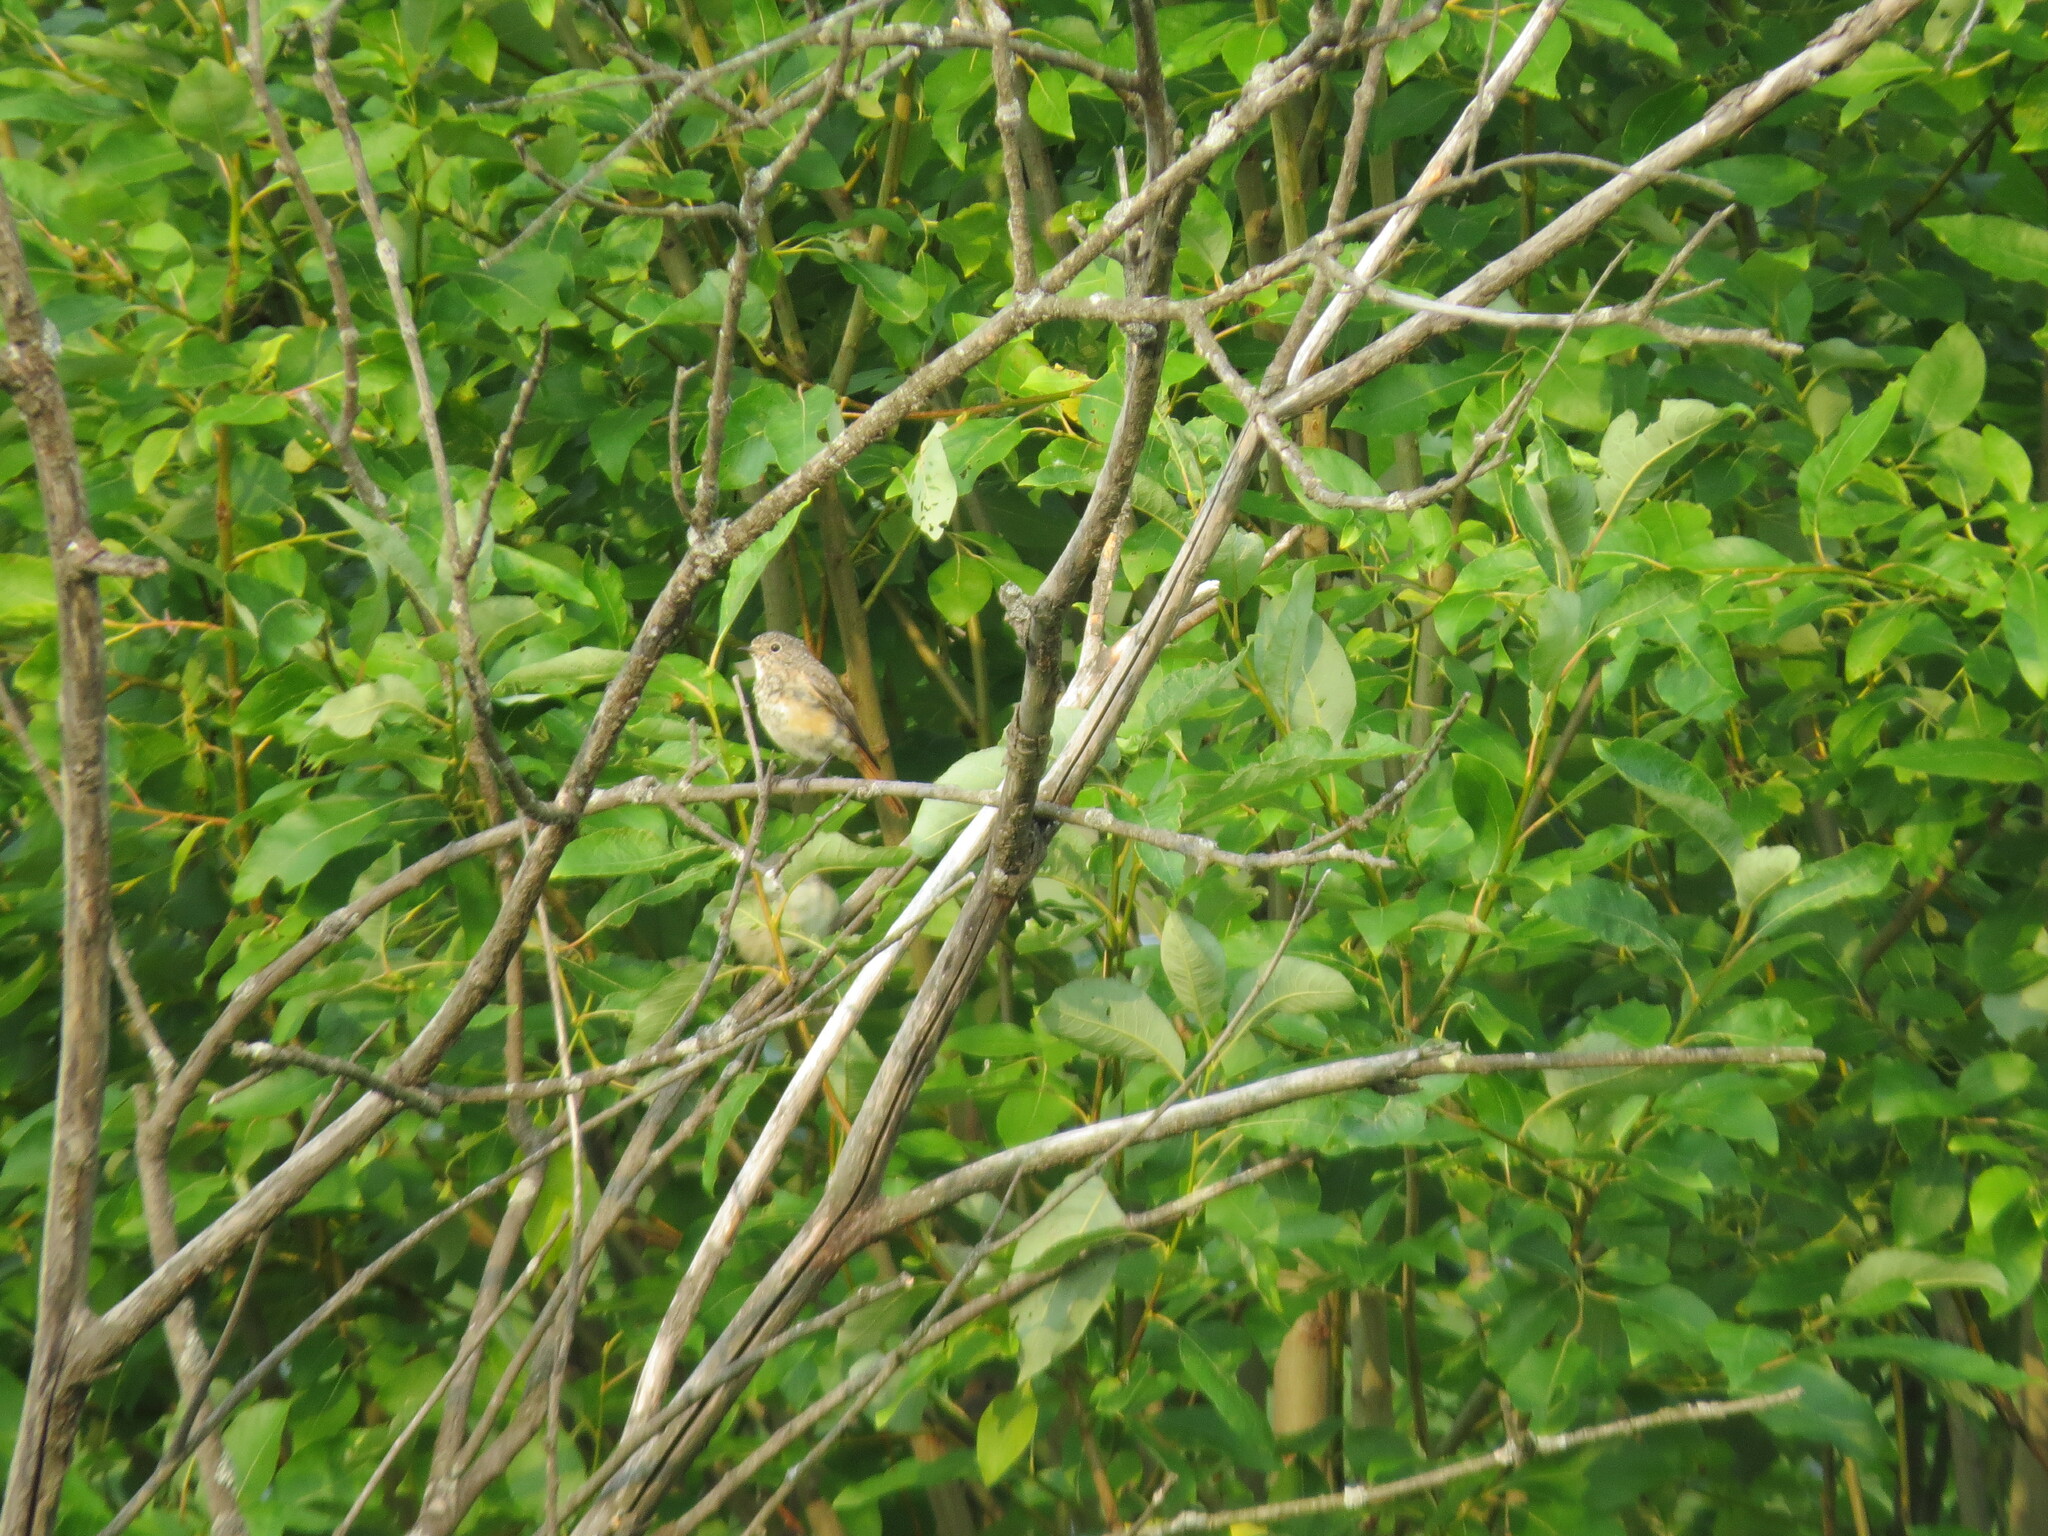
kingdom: Animalia
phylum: Chordata
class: Aves
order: Passeriformes
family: Muscicapidae
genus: Phoenicurus
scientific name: Phoenicurus phoenicurus
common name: Common redstart
